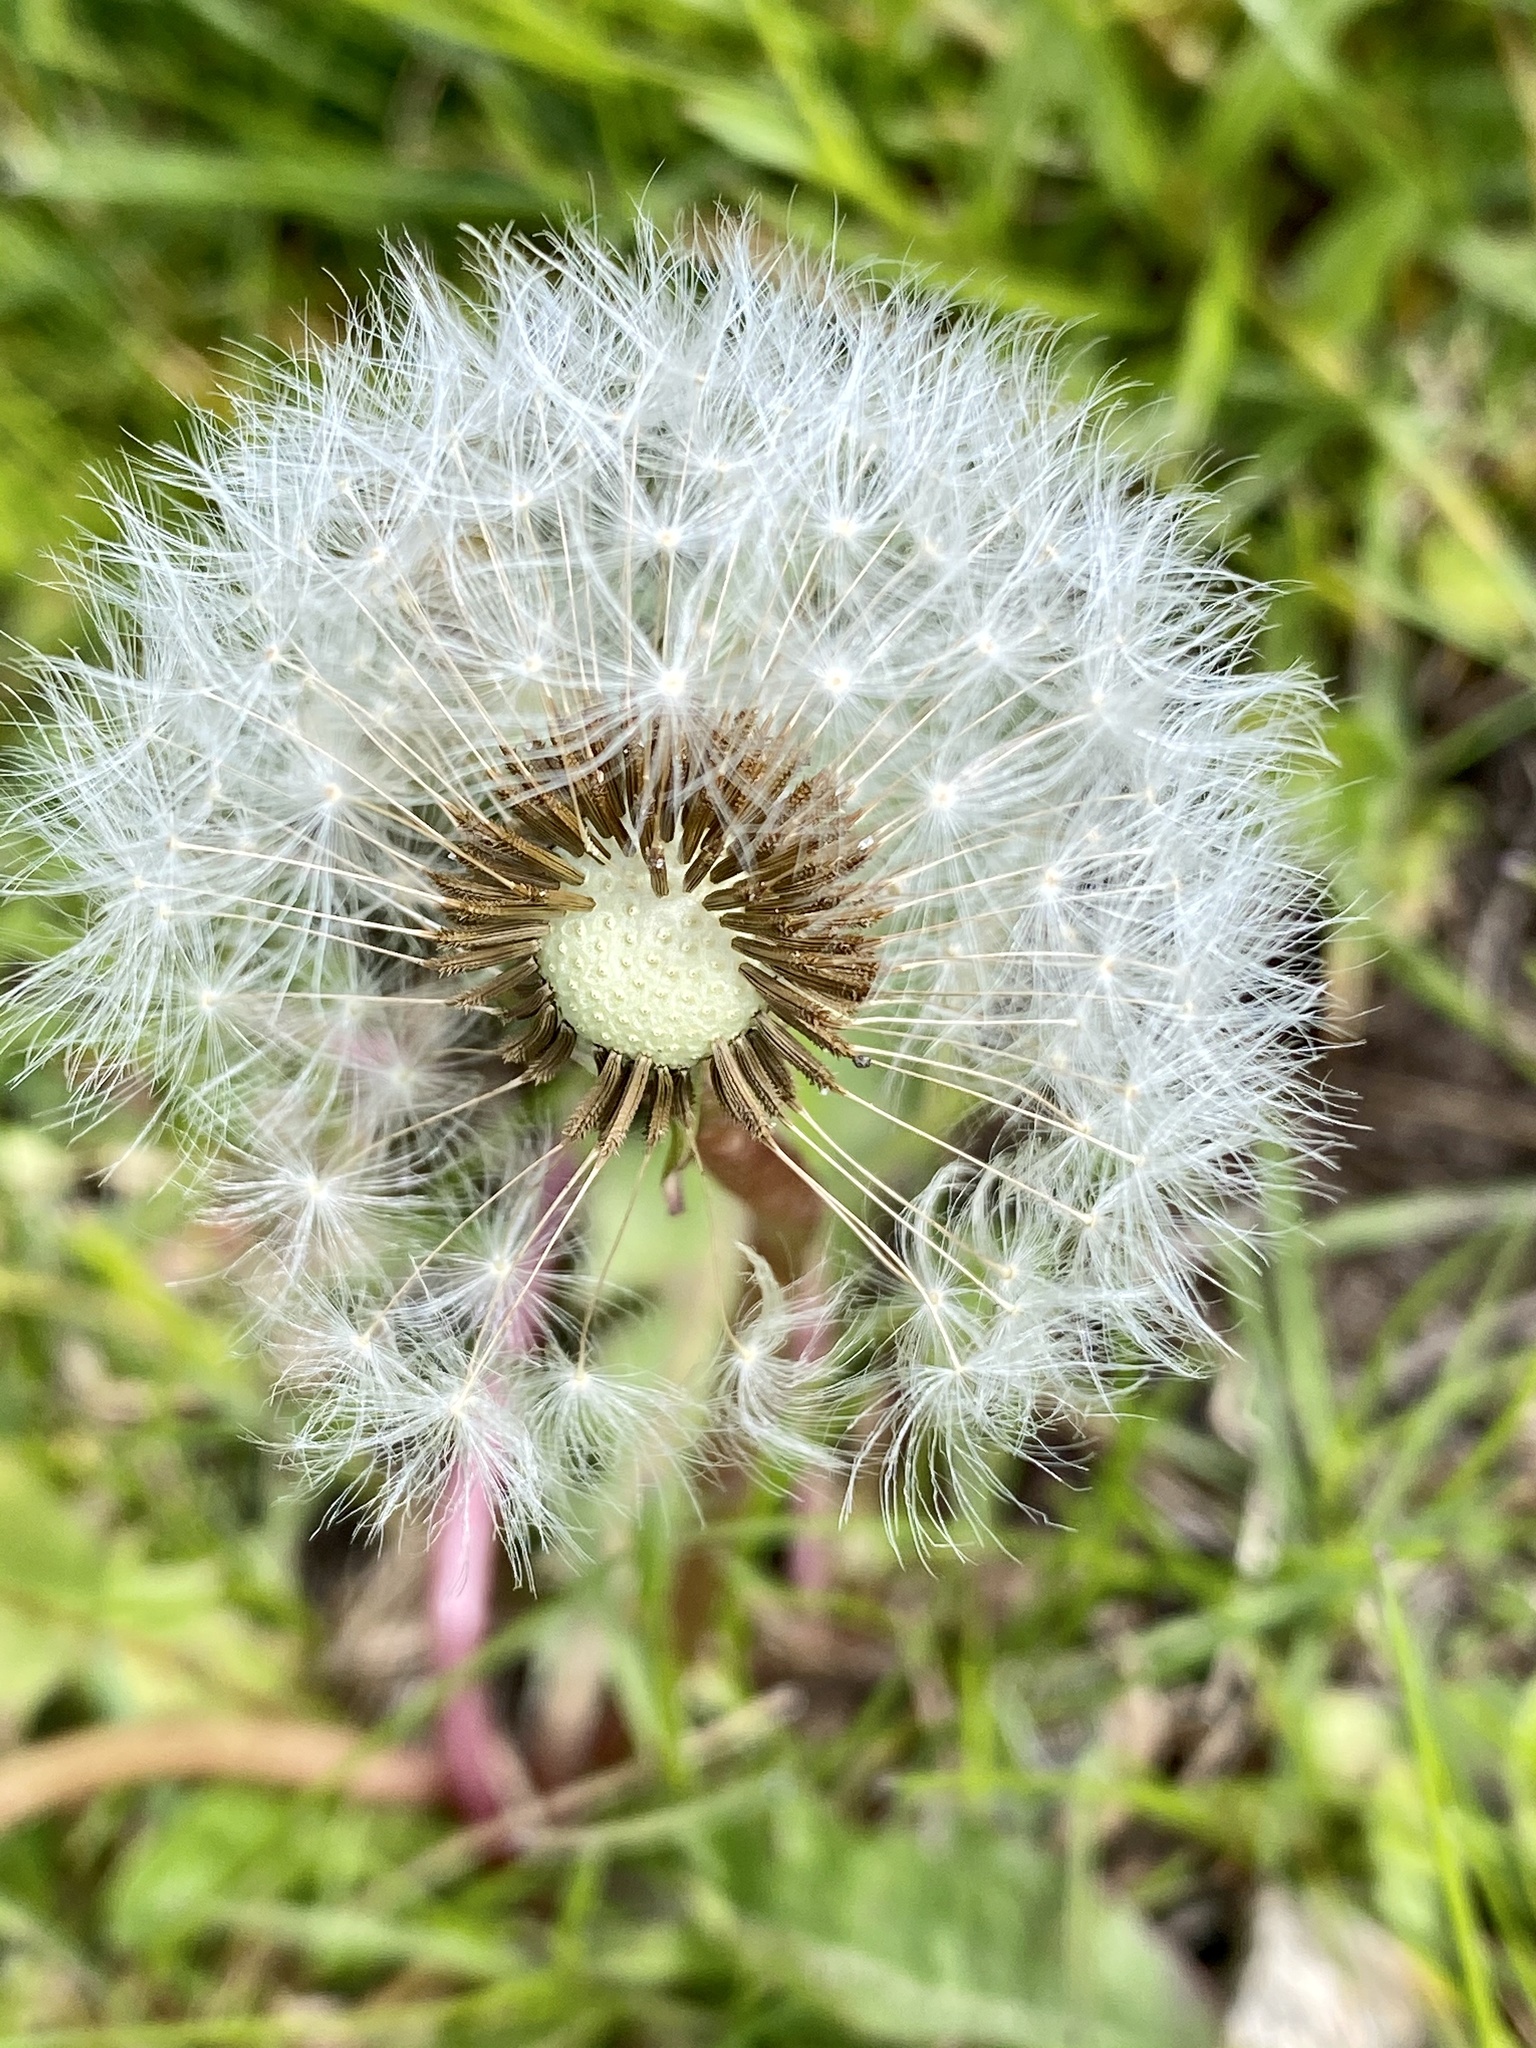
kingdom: Plantae
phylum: Tracheophyta
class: Magnoliopsida
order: Asterales
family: Asteraceae
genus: Taraxacum
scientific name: Taraxacum officinale
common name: Common dandelion
